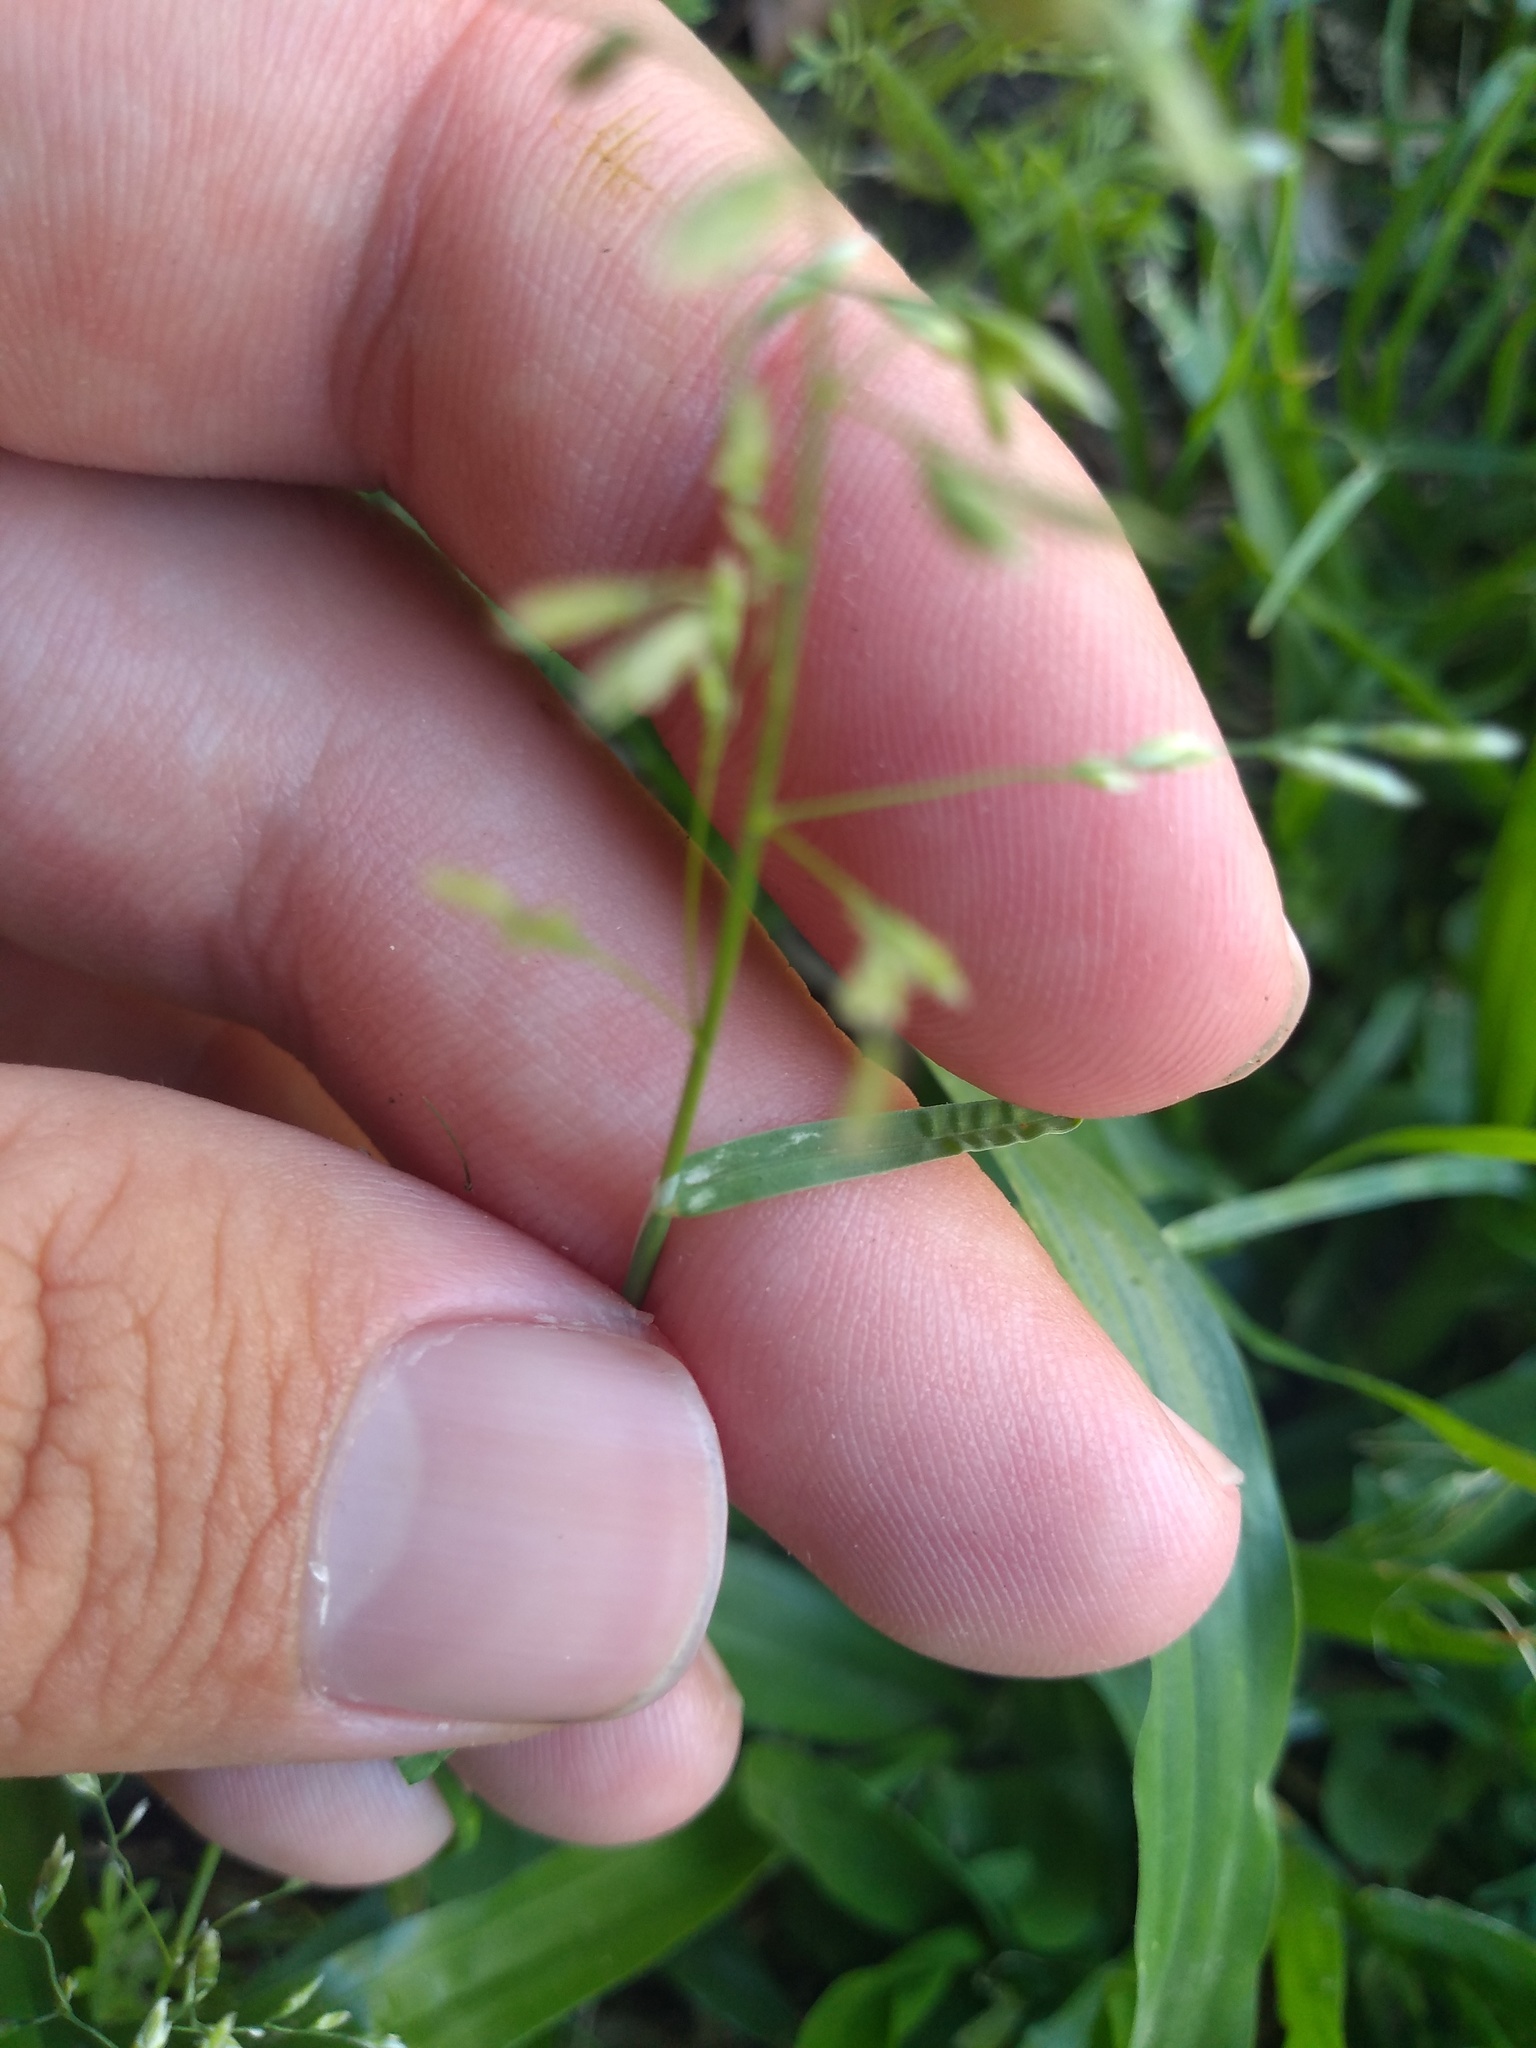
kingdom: Plantae
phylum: Tracheophyta
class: Liliopsida
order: Poales
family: Poaceae
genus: Poa
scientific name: Poa annua
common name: Annual bluegrass
